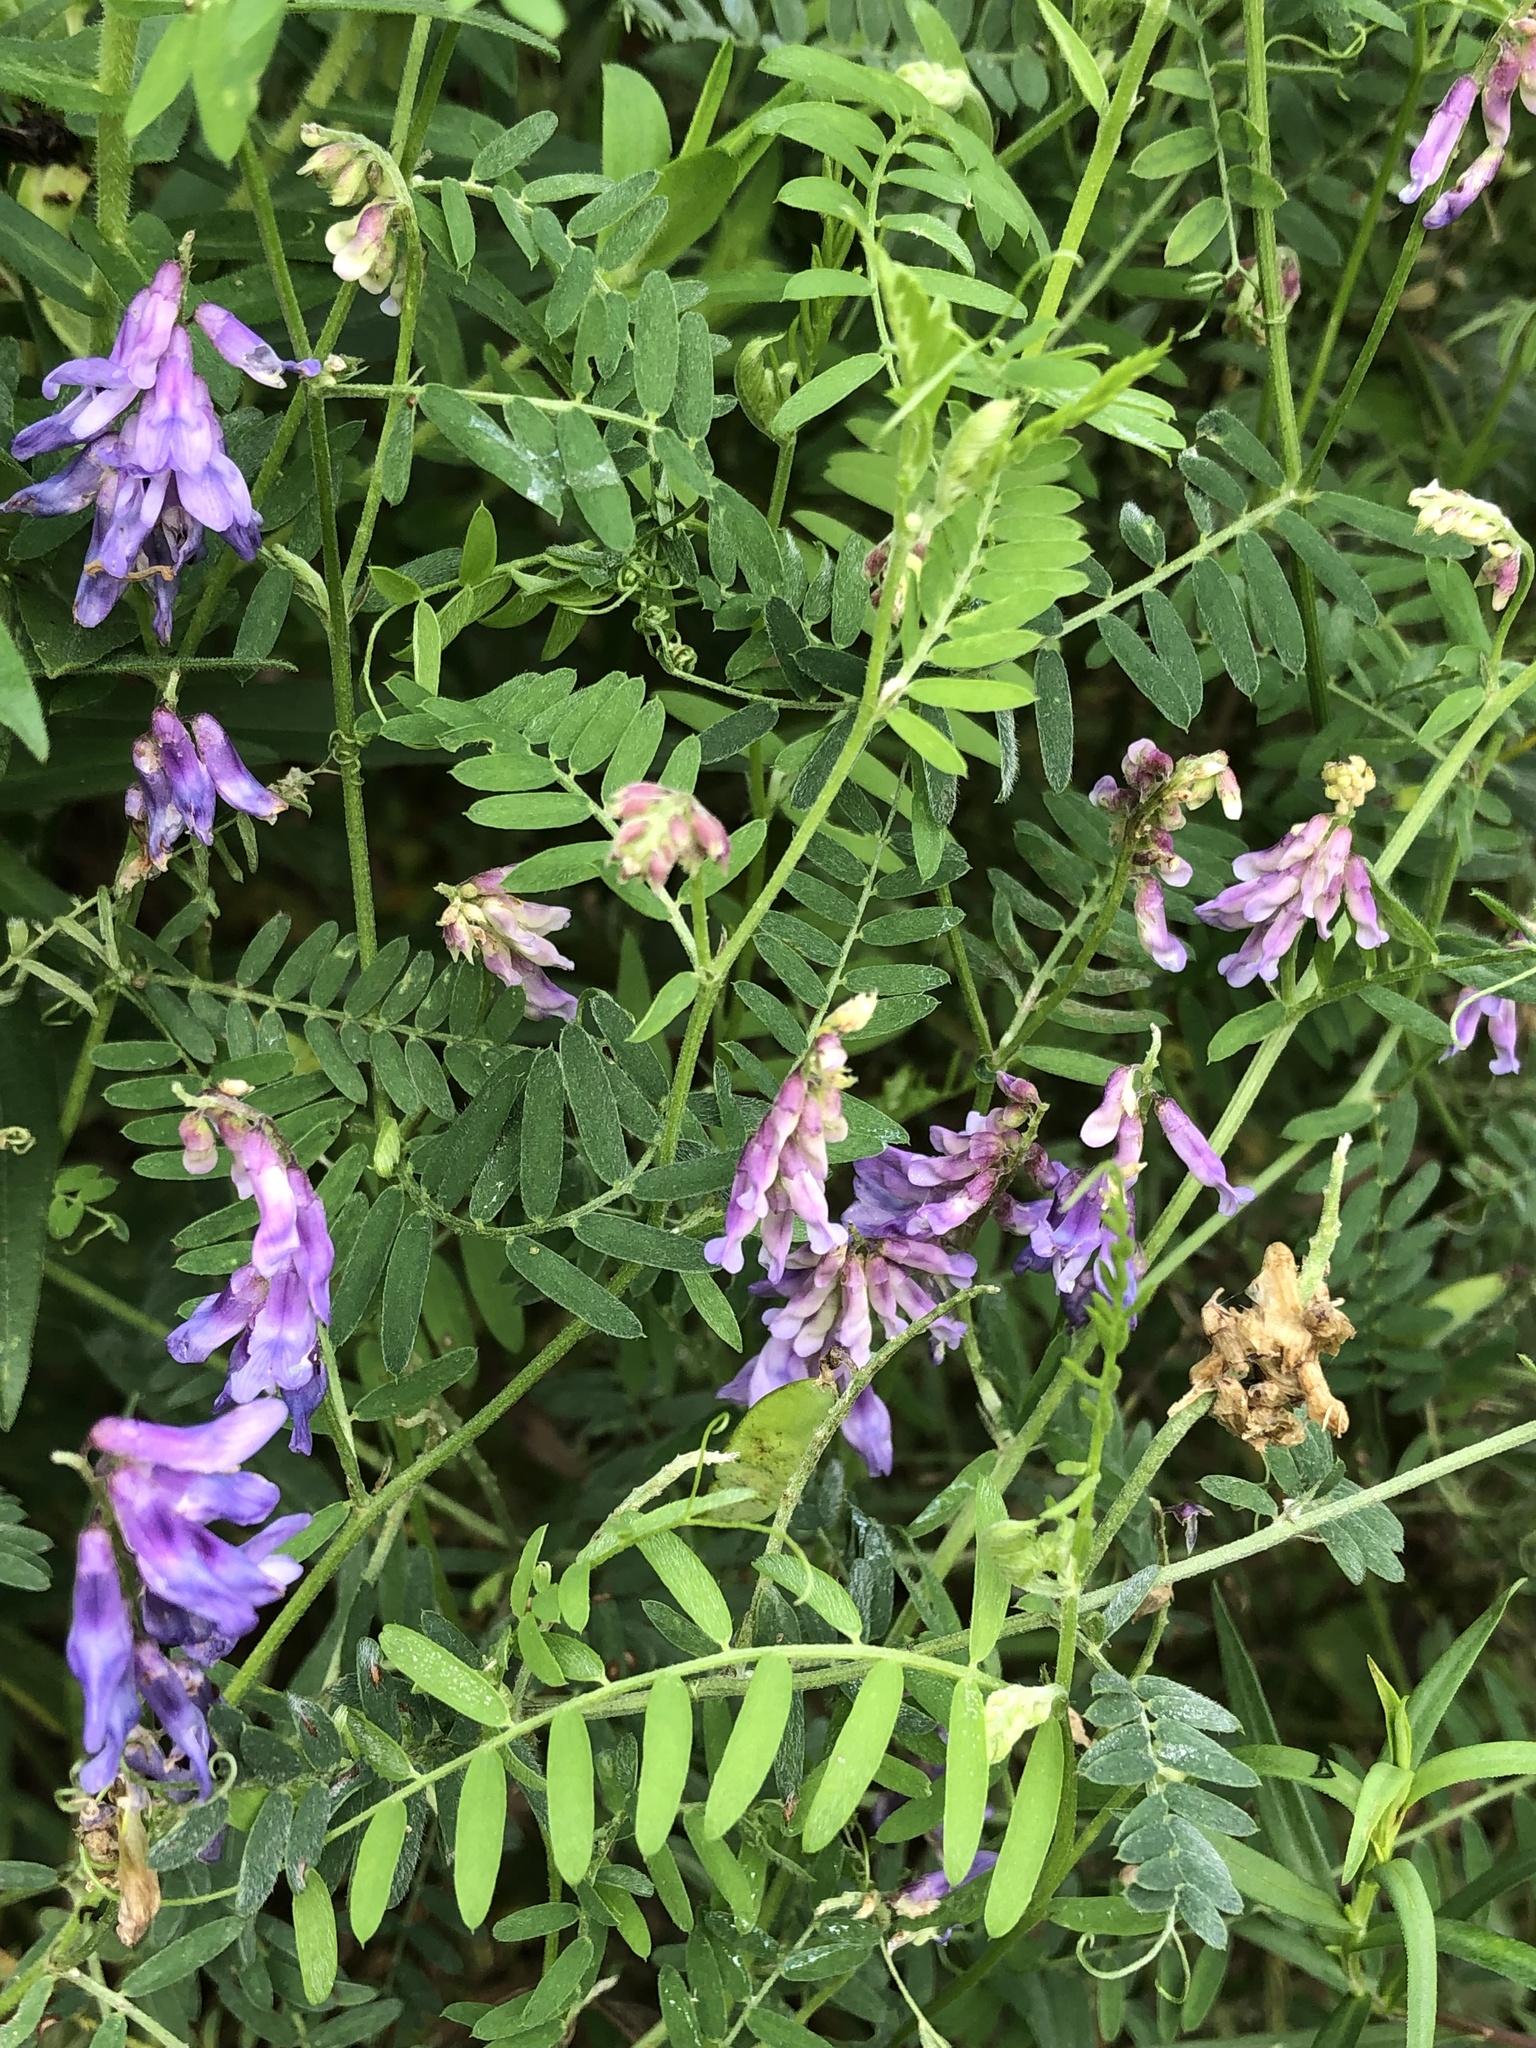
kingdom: Plantae
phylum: Tracheophyta
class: Magnoliopsida
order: Fabales
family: Fabaceae
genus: Vicia
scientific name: Vicia cracca
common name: Bird vetch
